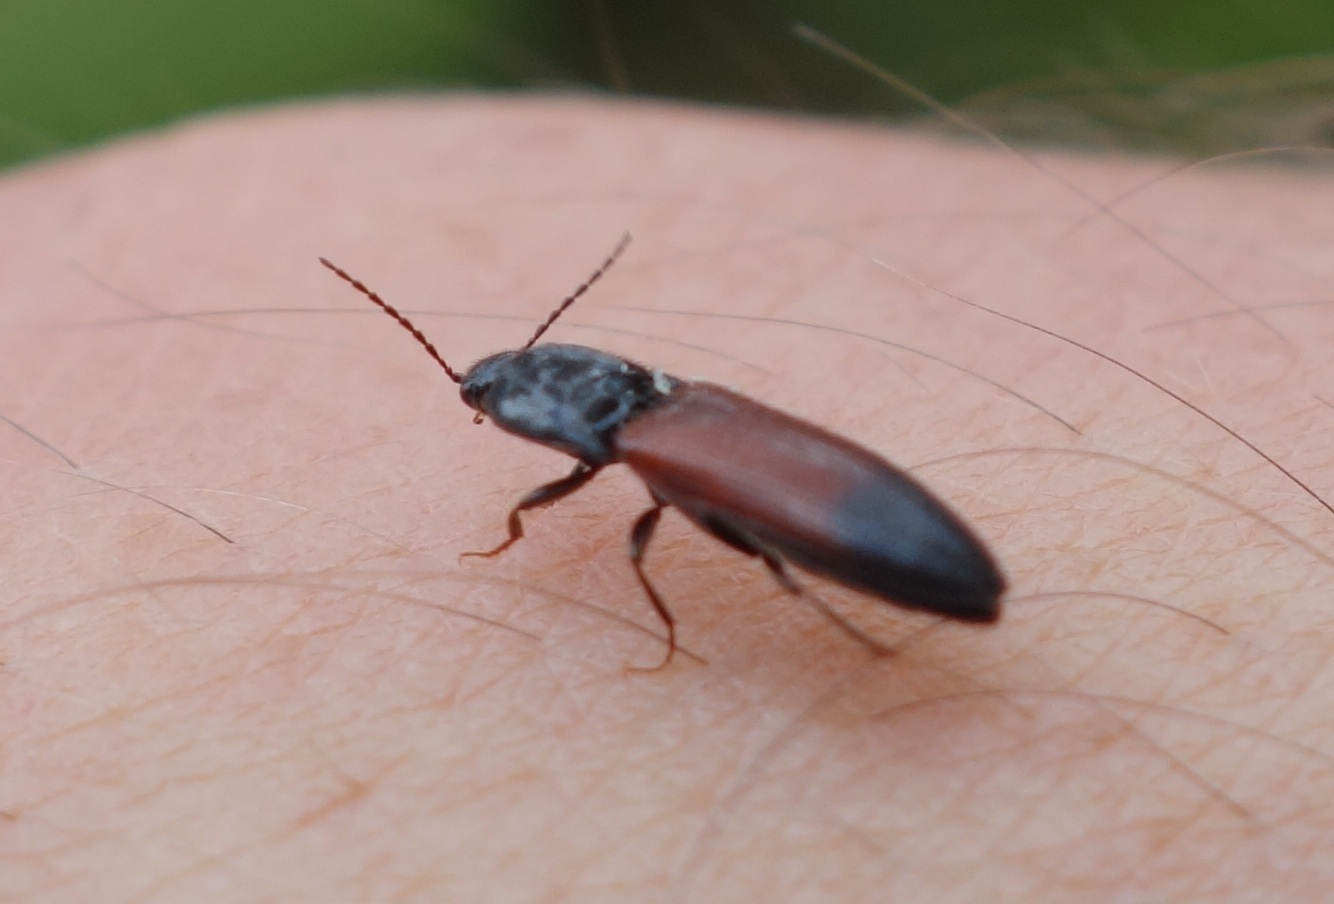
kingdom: Animalia
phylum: Arthropoda
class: Insecta
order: Coleoptera
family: Elateridae
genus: Ampedus
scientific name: Ampedus balteatus
